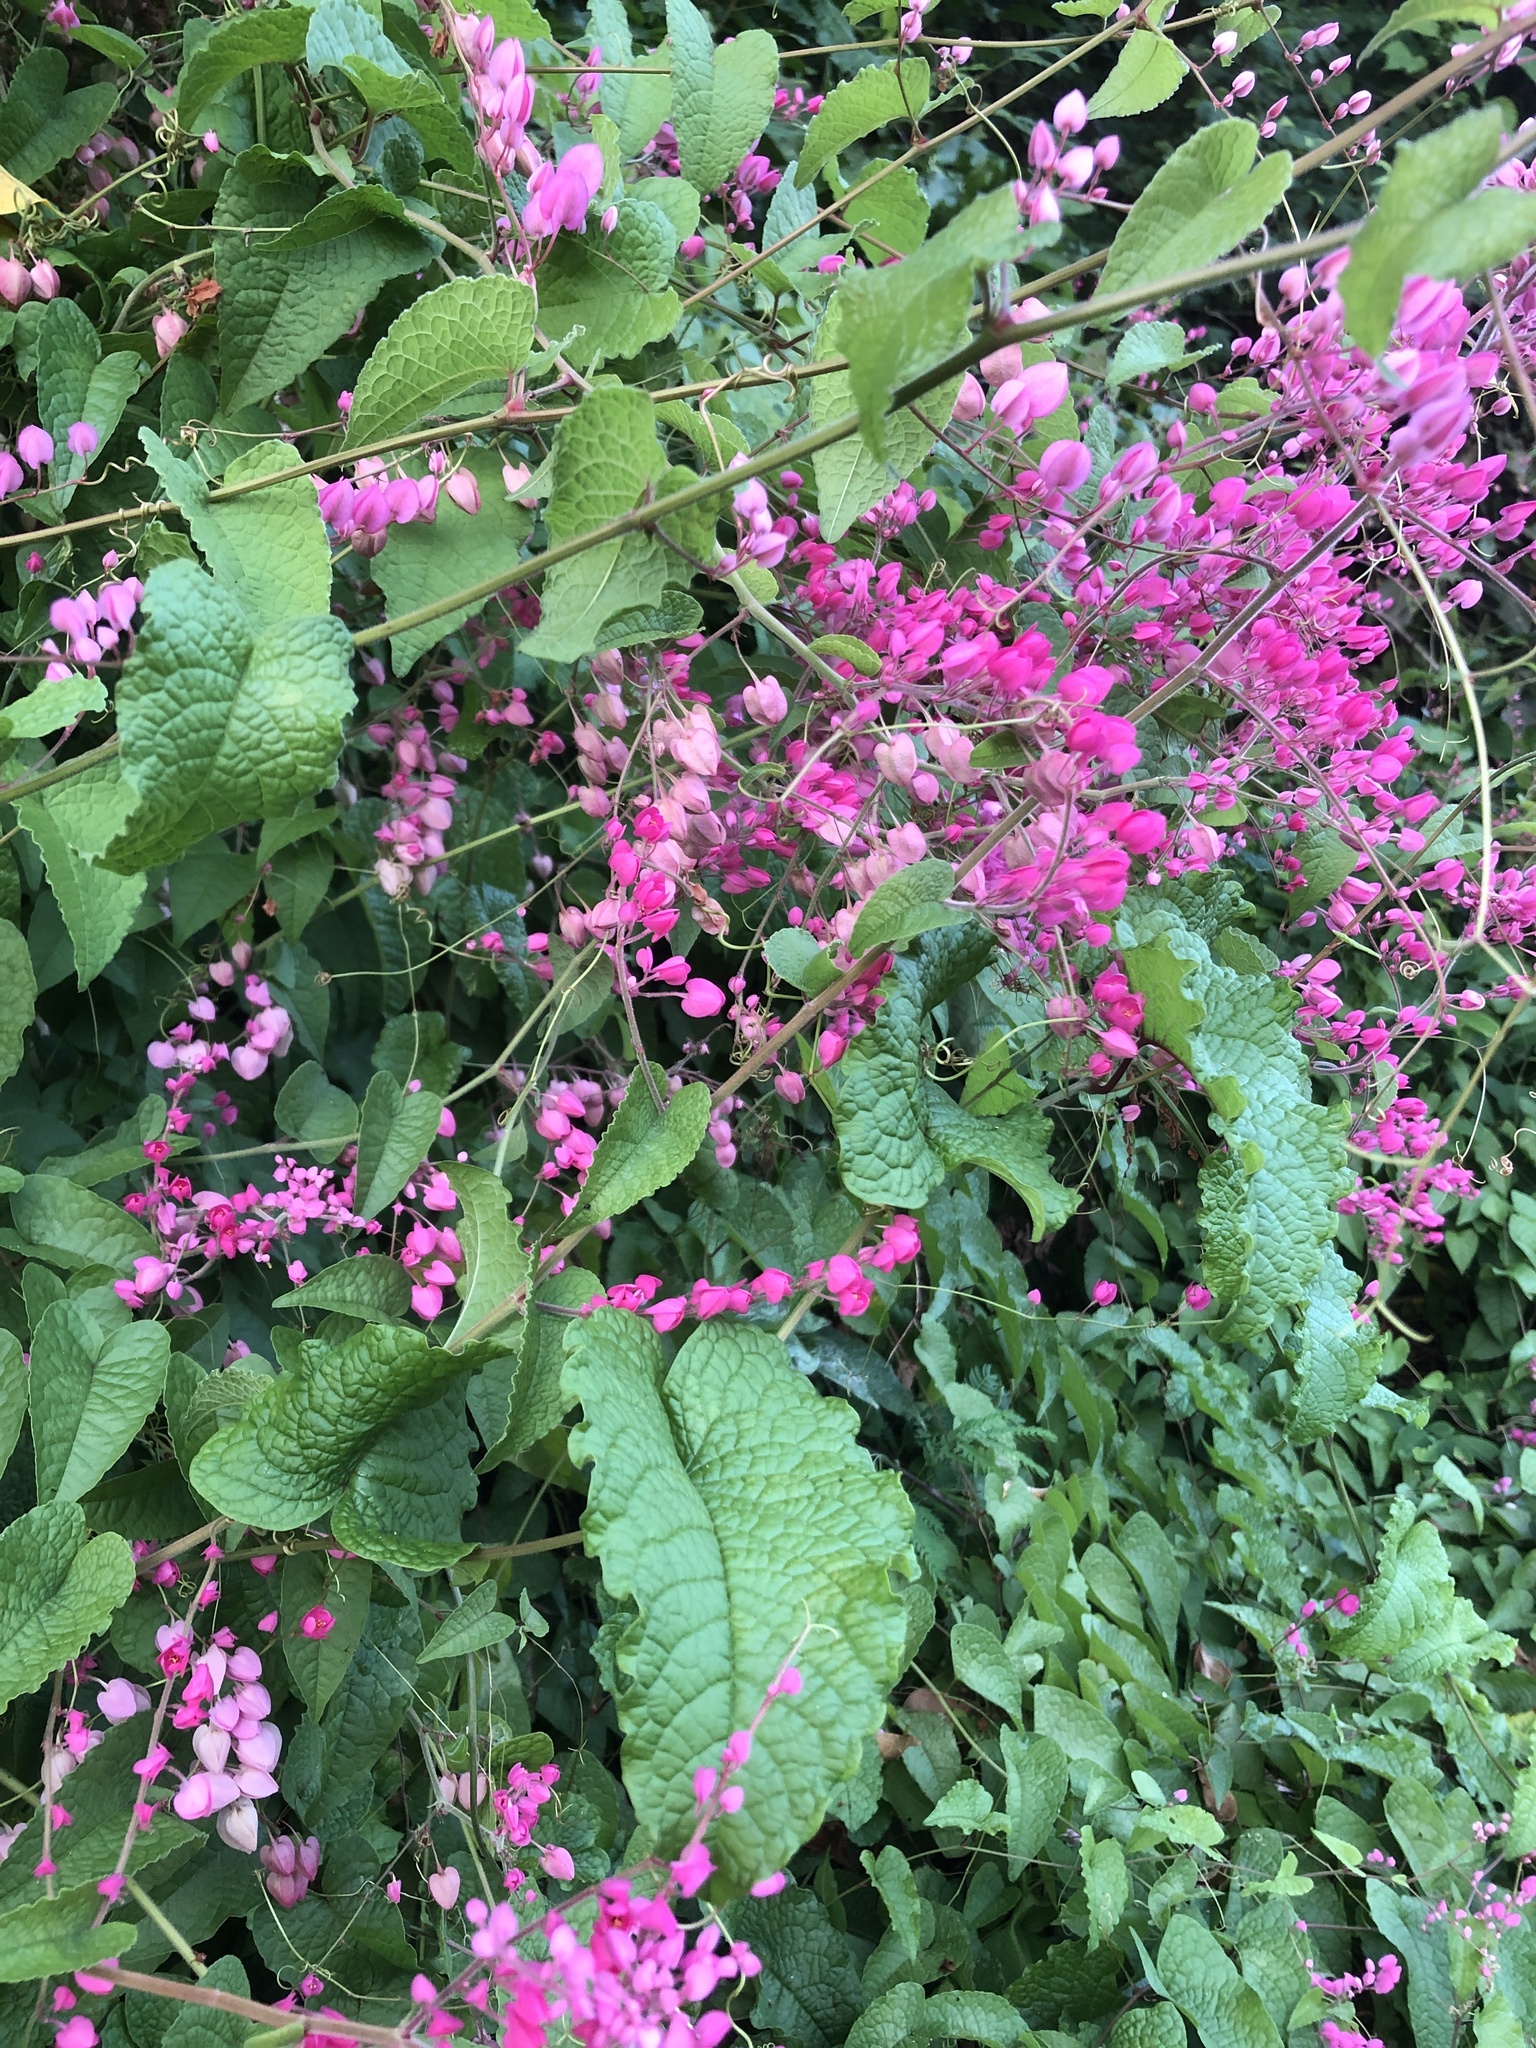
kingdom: Plantae
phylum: Tracheophyta
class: Magnoliopsida
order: Caryophyllales
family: Polygonaceae
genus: Antigonon
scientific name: Antigonon leptopus
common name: Coral vine
